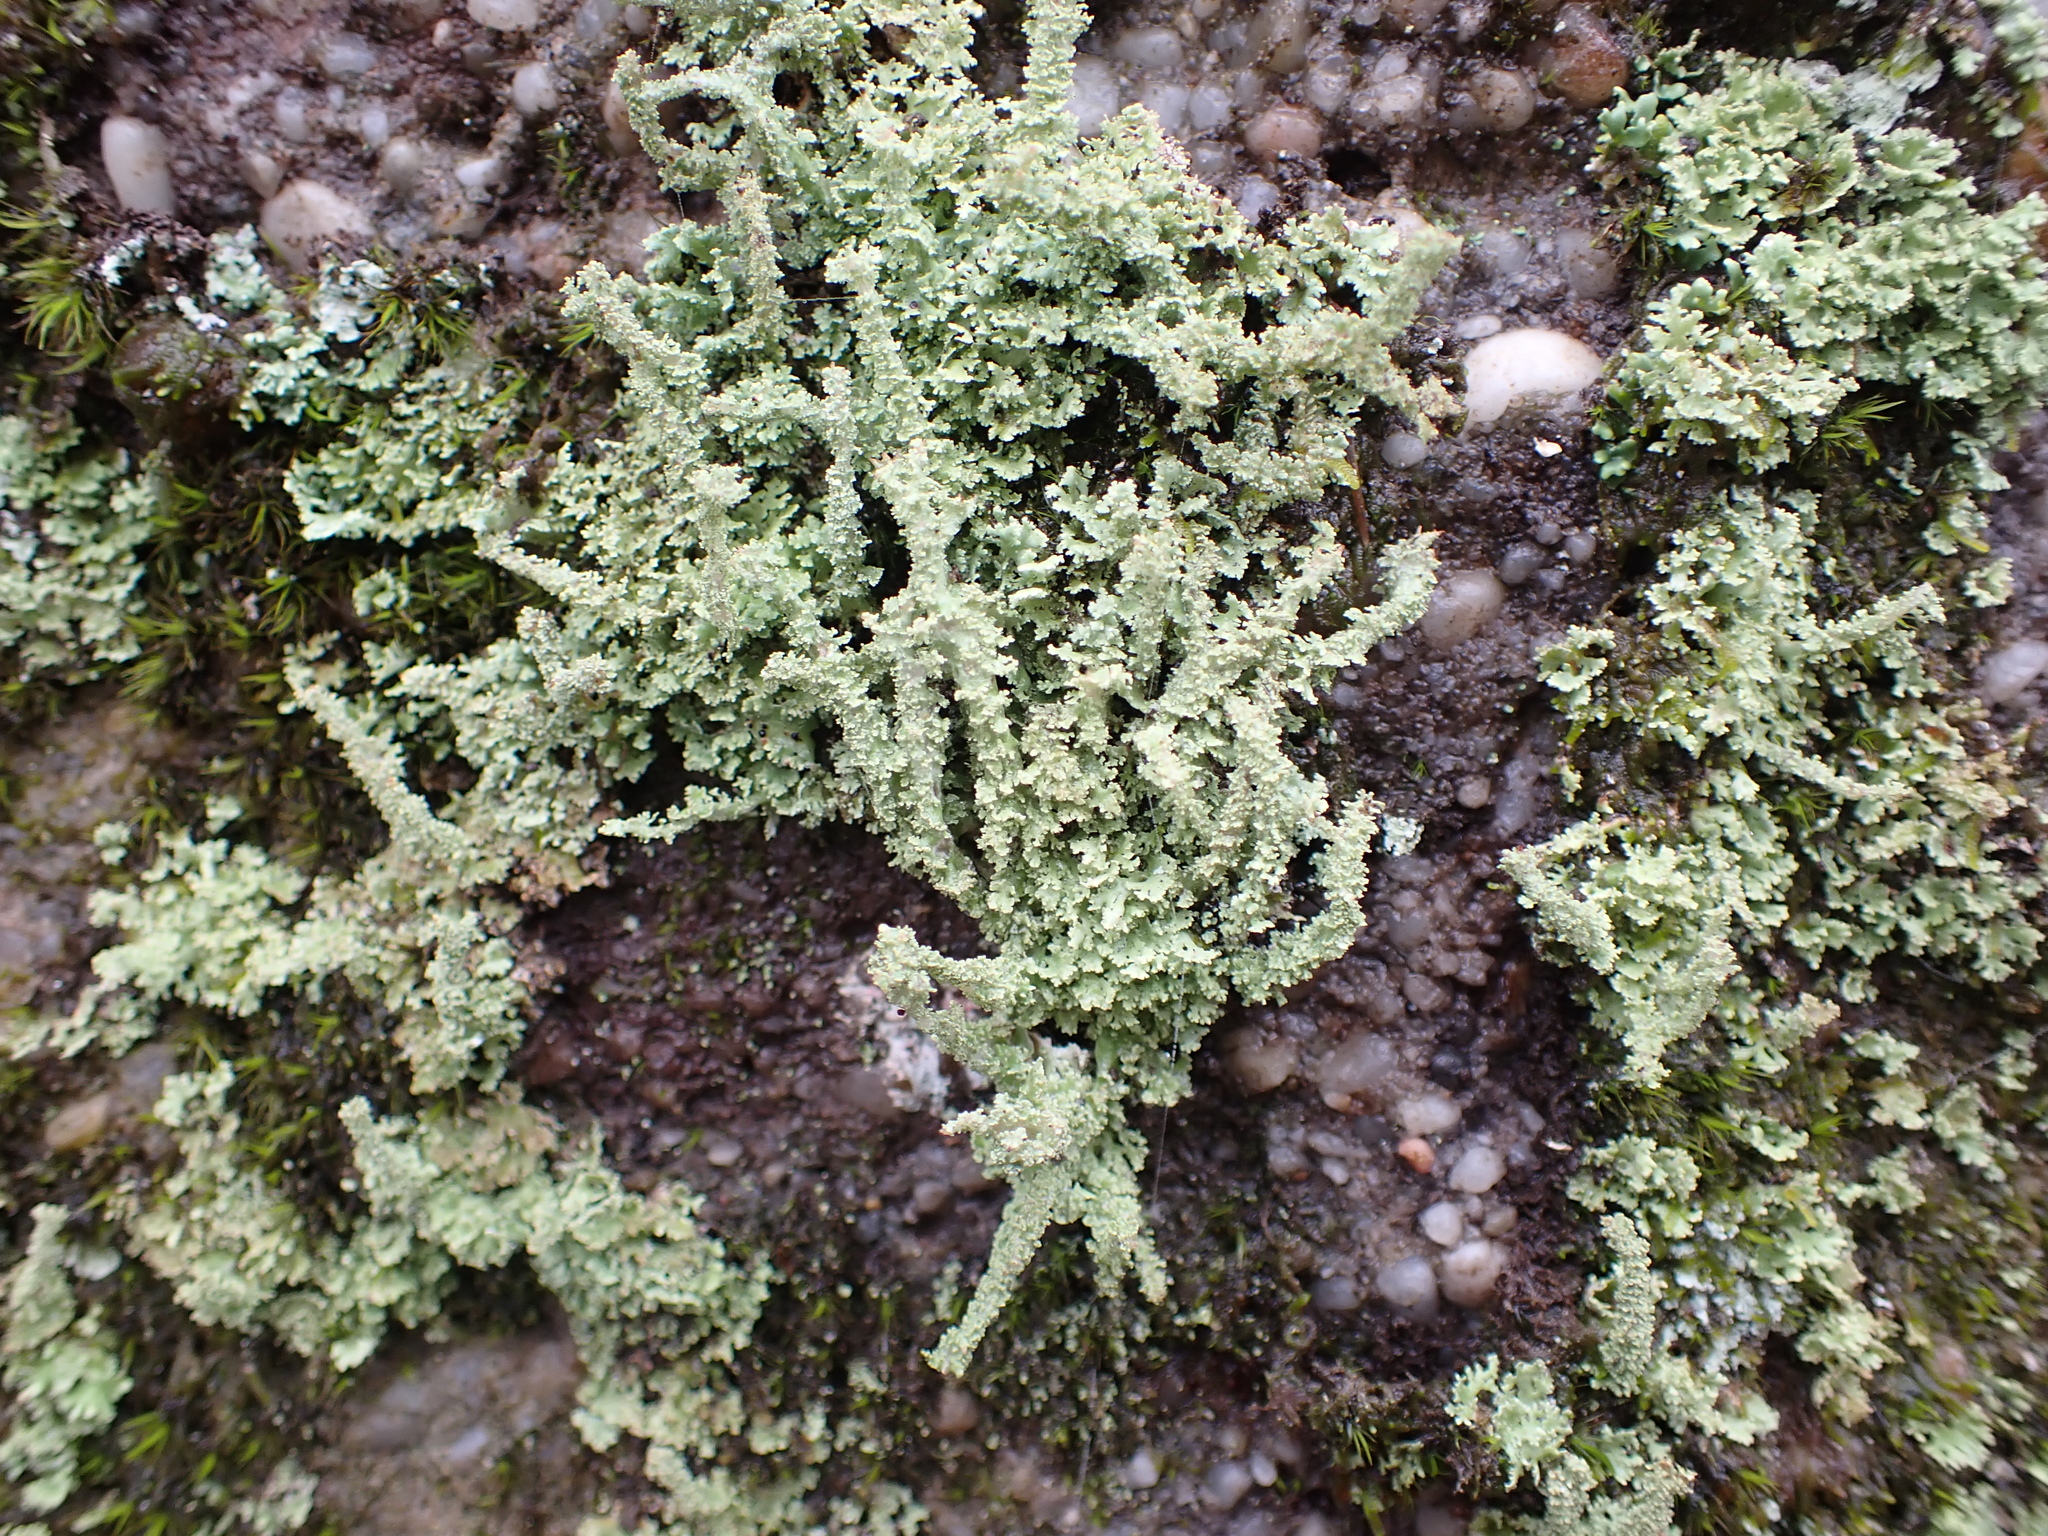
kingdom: Fungi
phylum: Ascomycota
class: Lecanoromycetes
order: Lecanorales
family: Cladoniaceae
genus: Cladonia
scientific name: Cladonia squamosa
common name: Dragon horn
